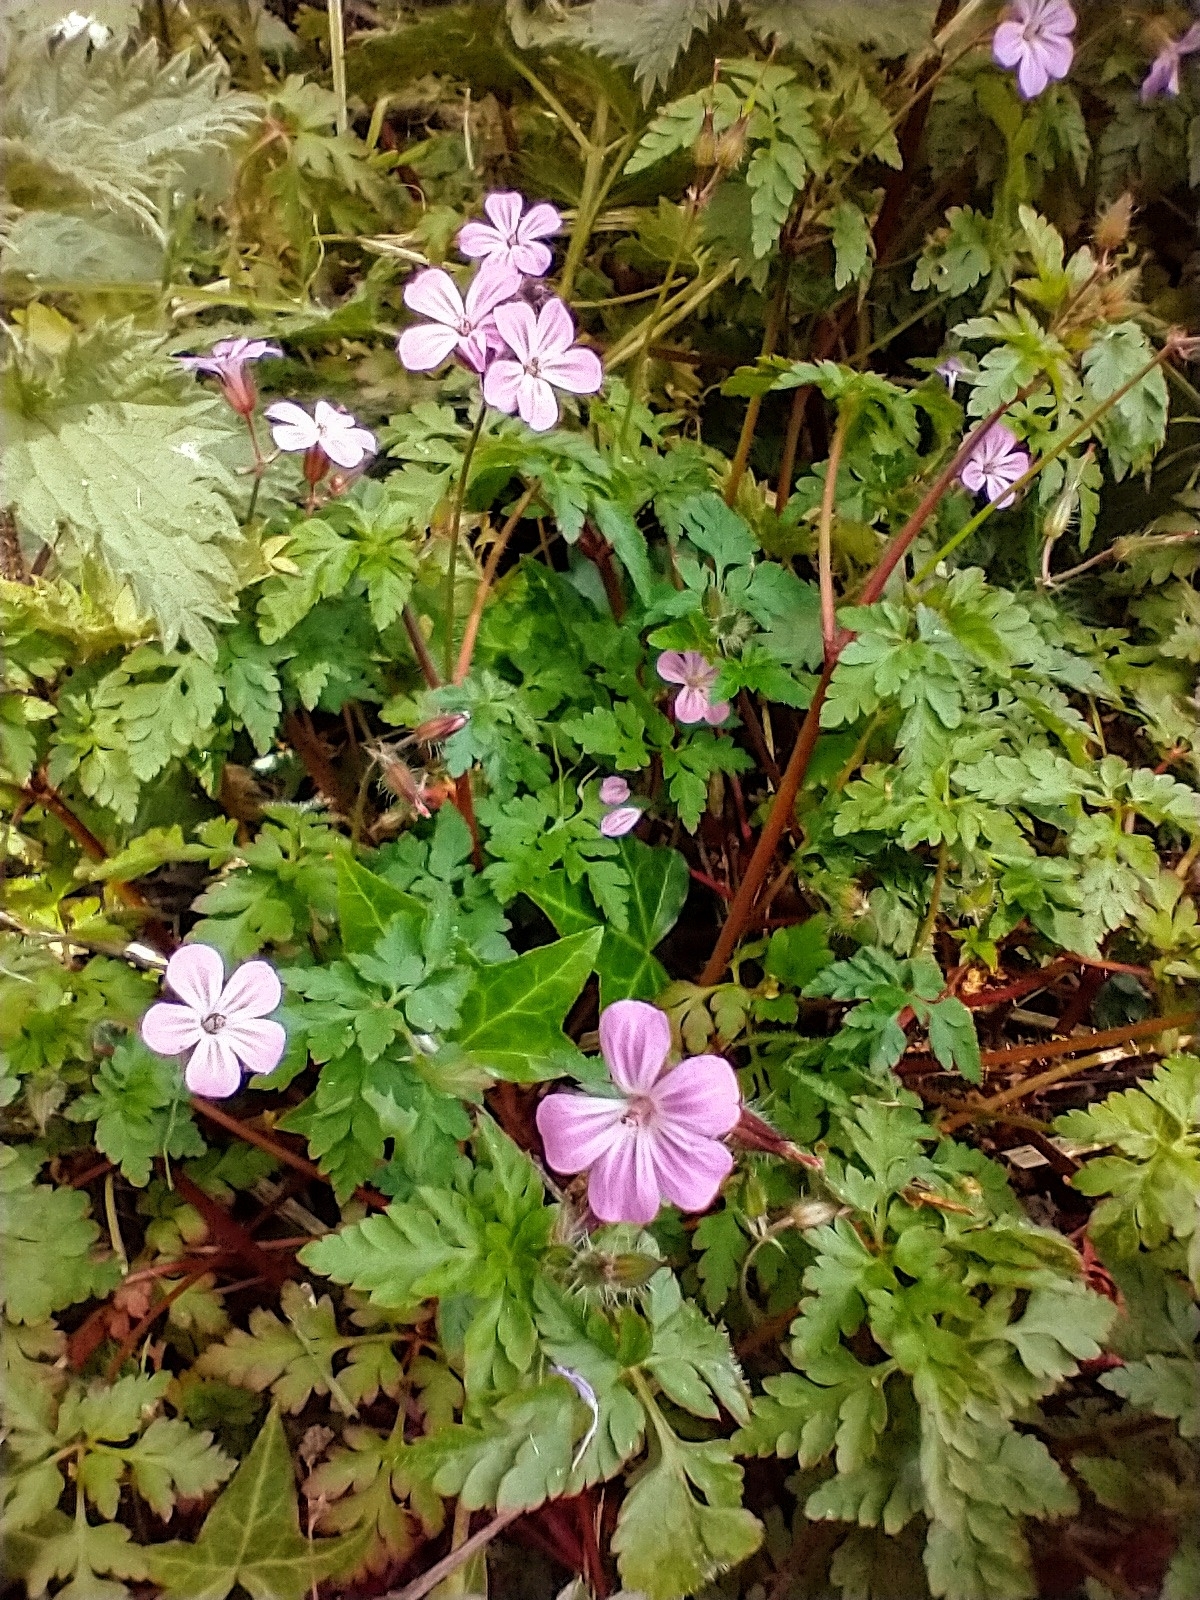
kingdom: Plantae
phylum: Tracheophyta
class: Magnoliopsida
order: Geraniales
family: Geraniaceae
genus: Geranium
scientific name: Geranium robertianum
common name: Herb-robert
